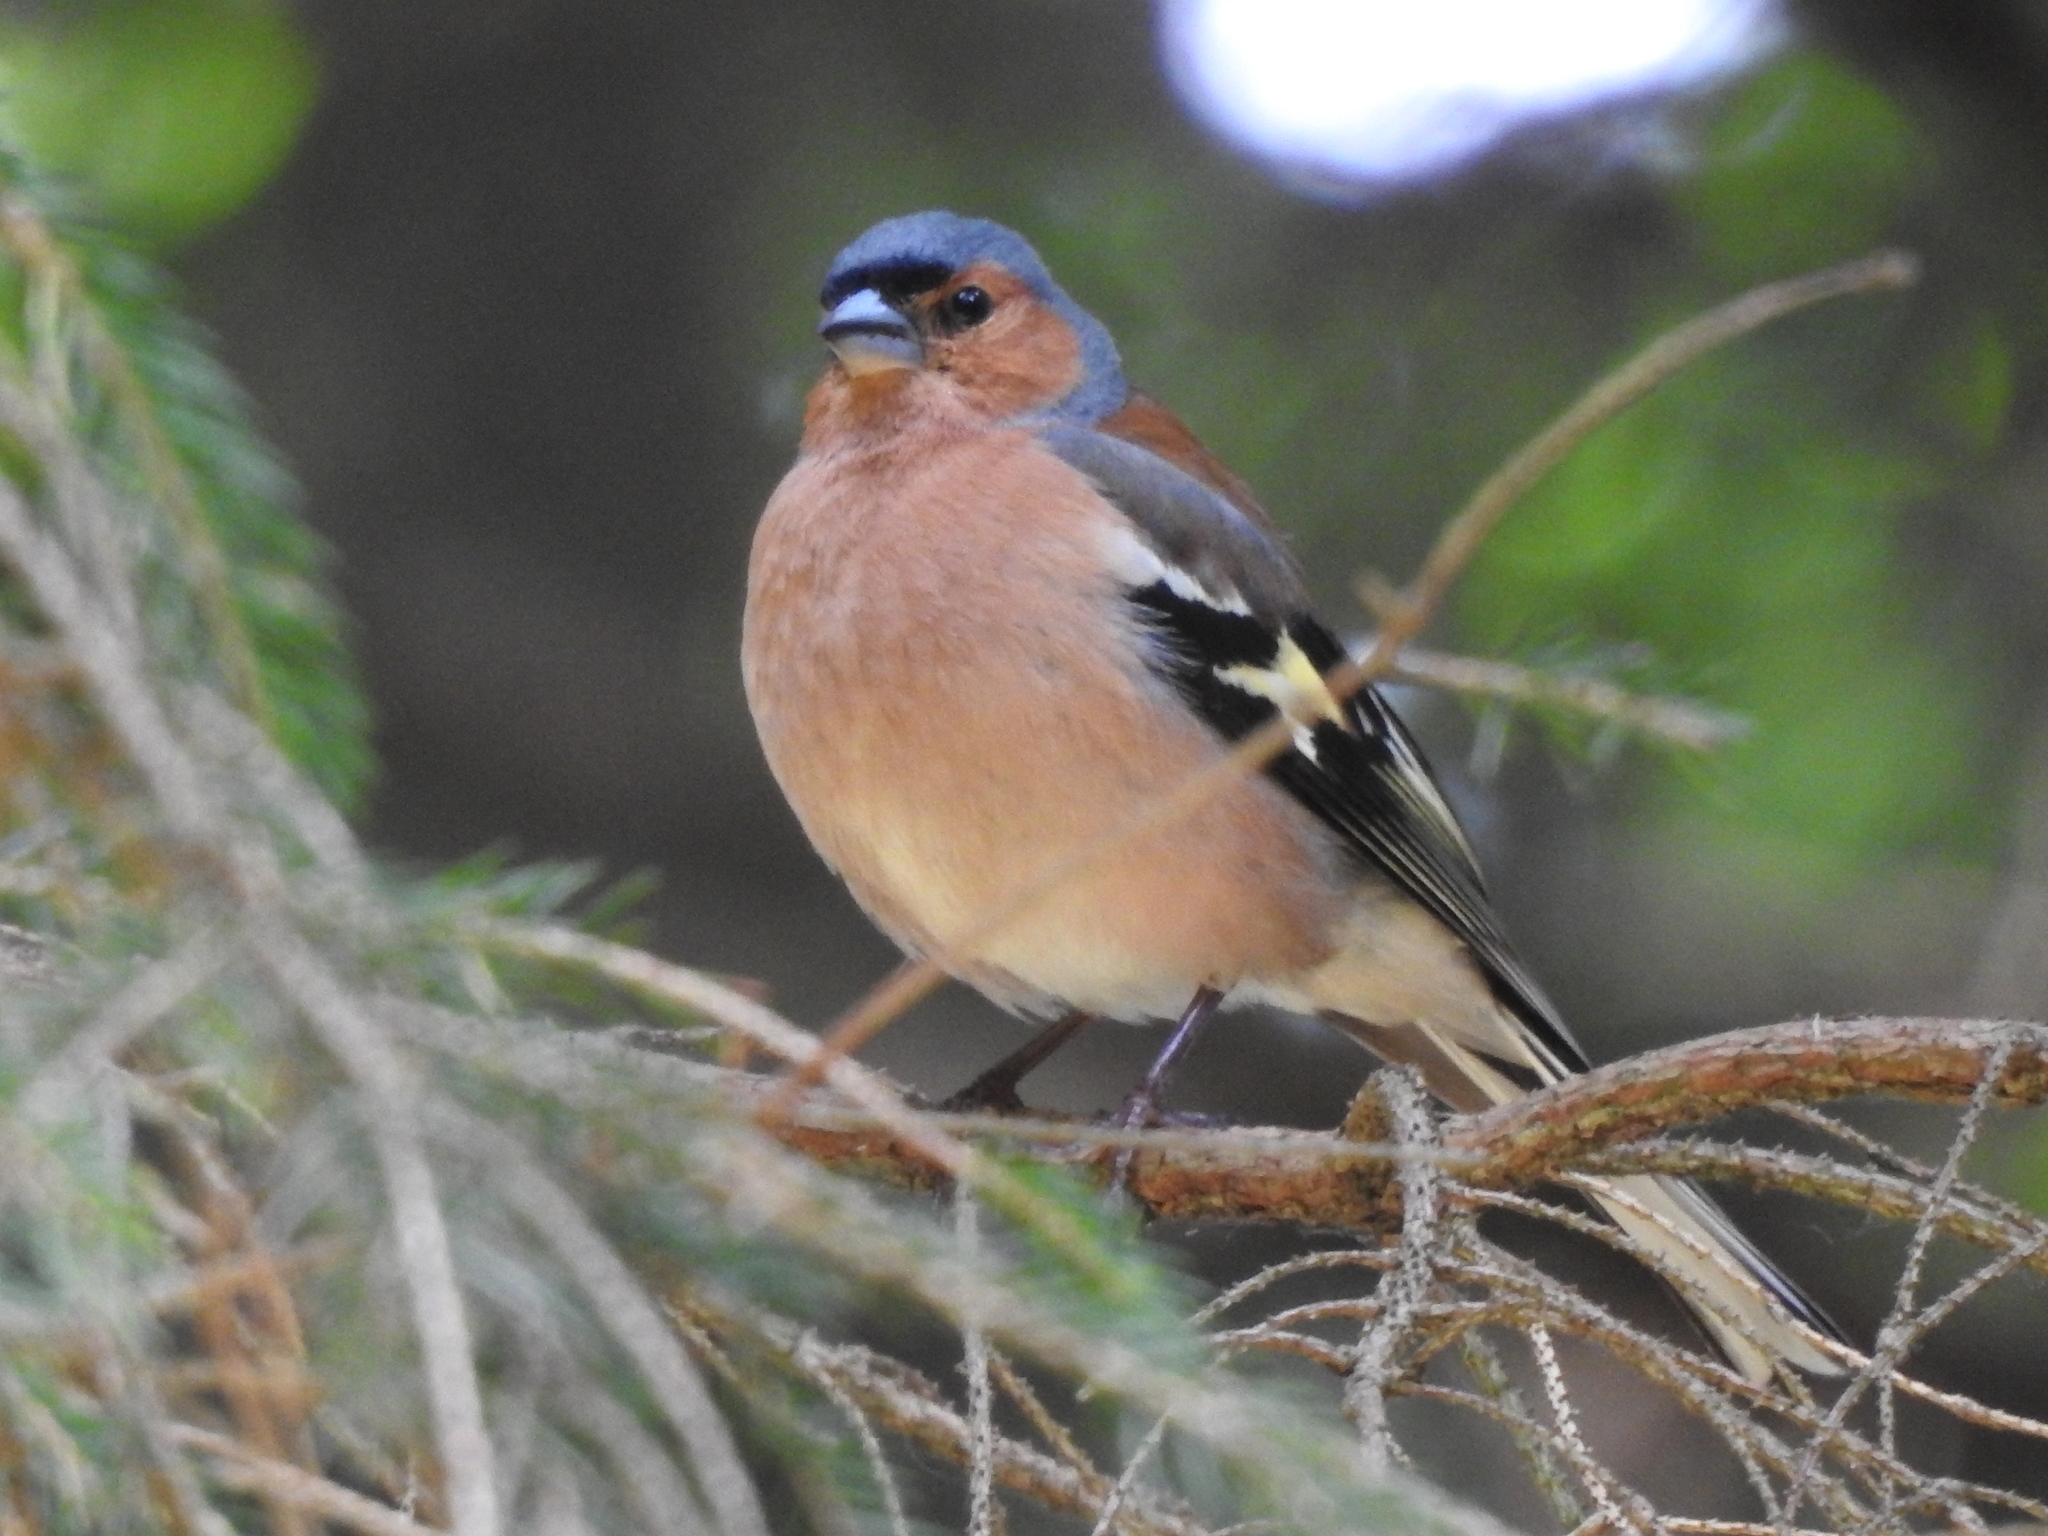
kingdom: Animalia
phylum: Chordata
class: Aves
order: Passeriformes
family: Fringillidae
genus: Fringilla
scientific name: Fringilla coelebs
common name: Common chaffinch
